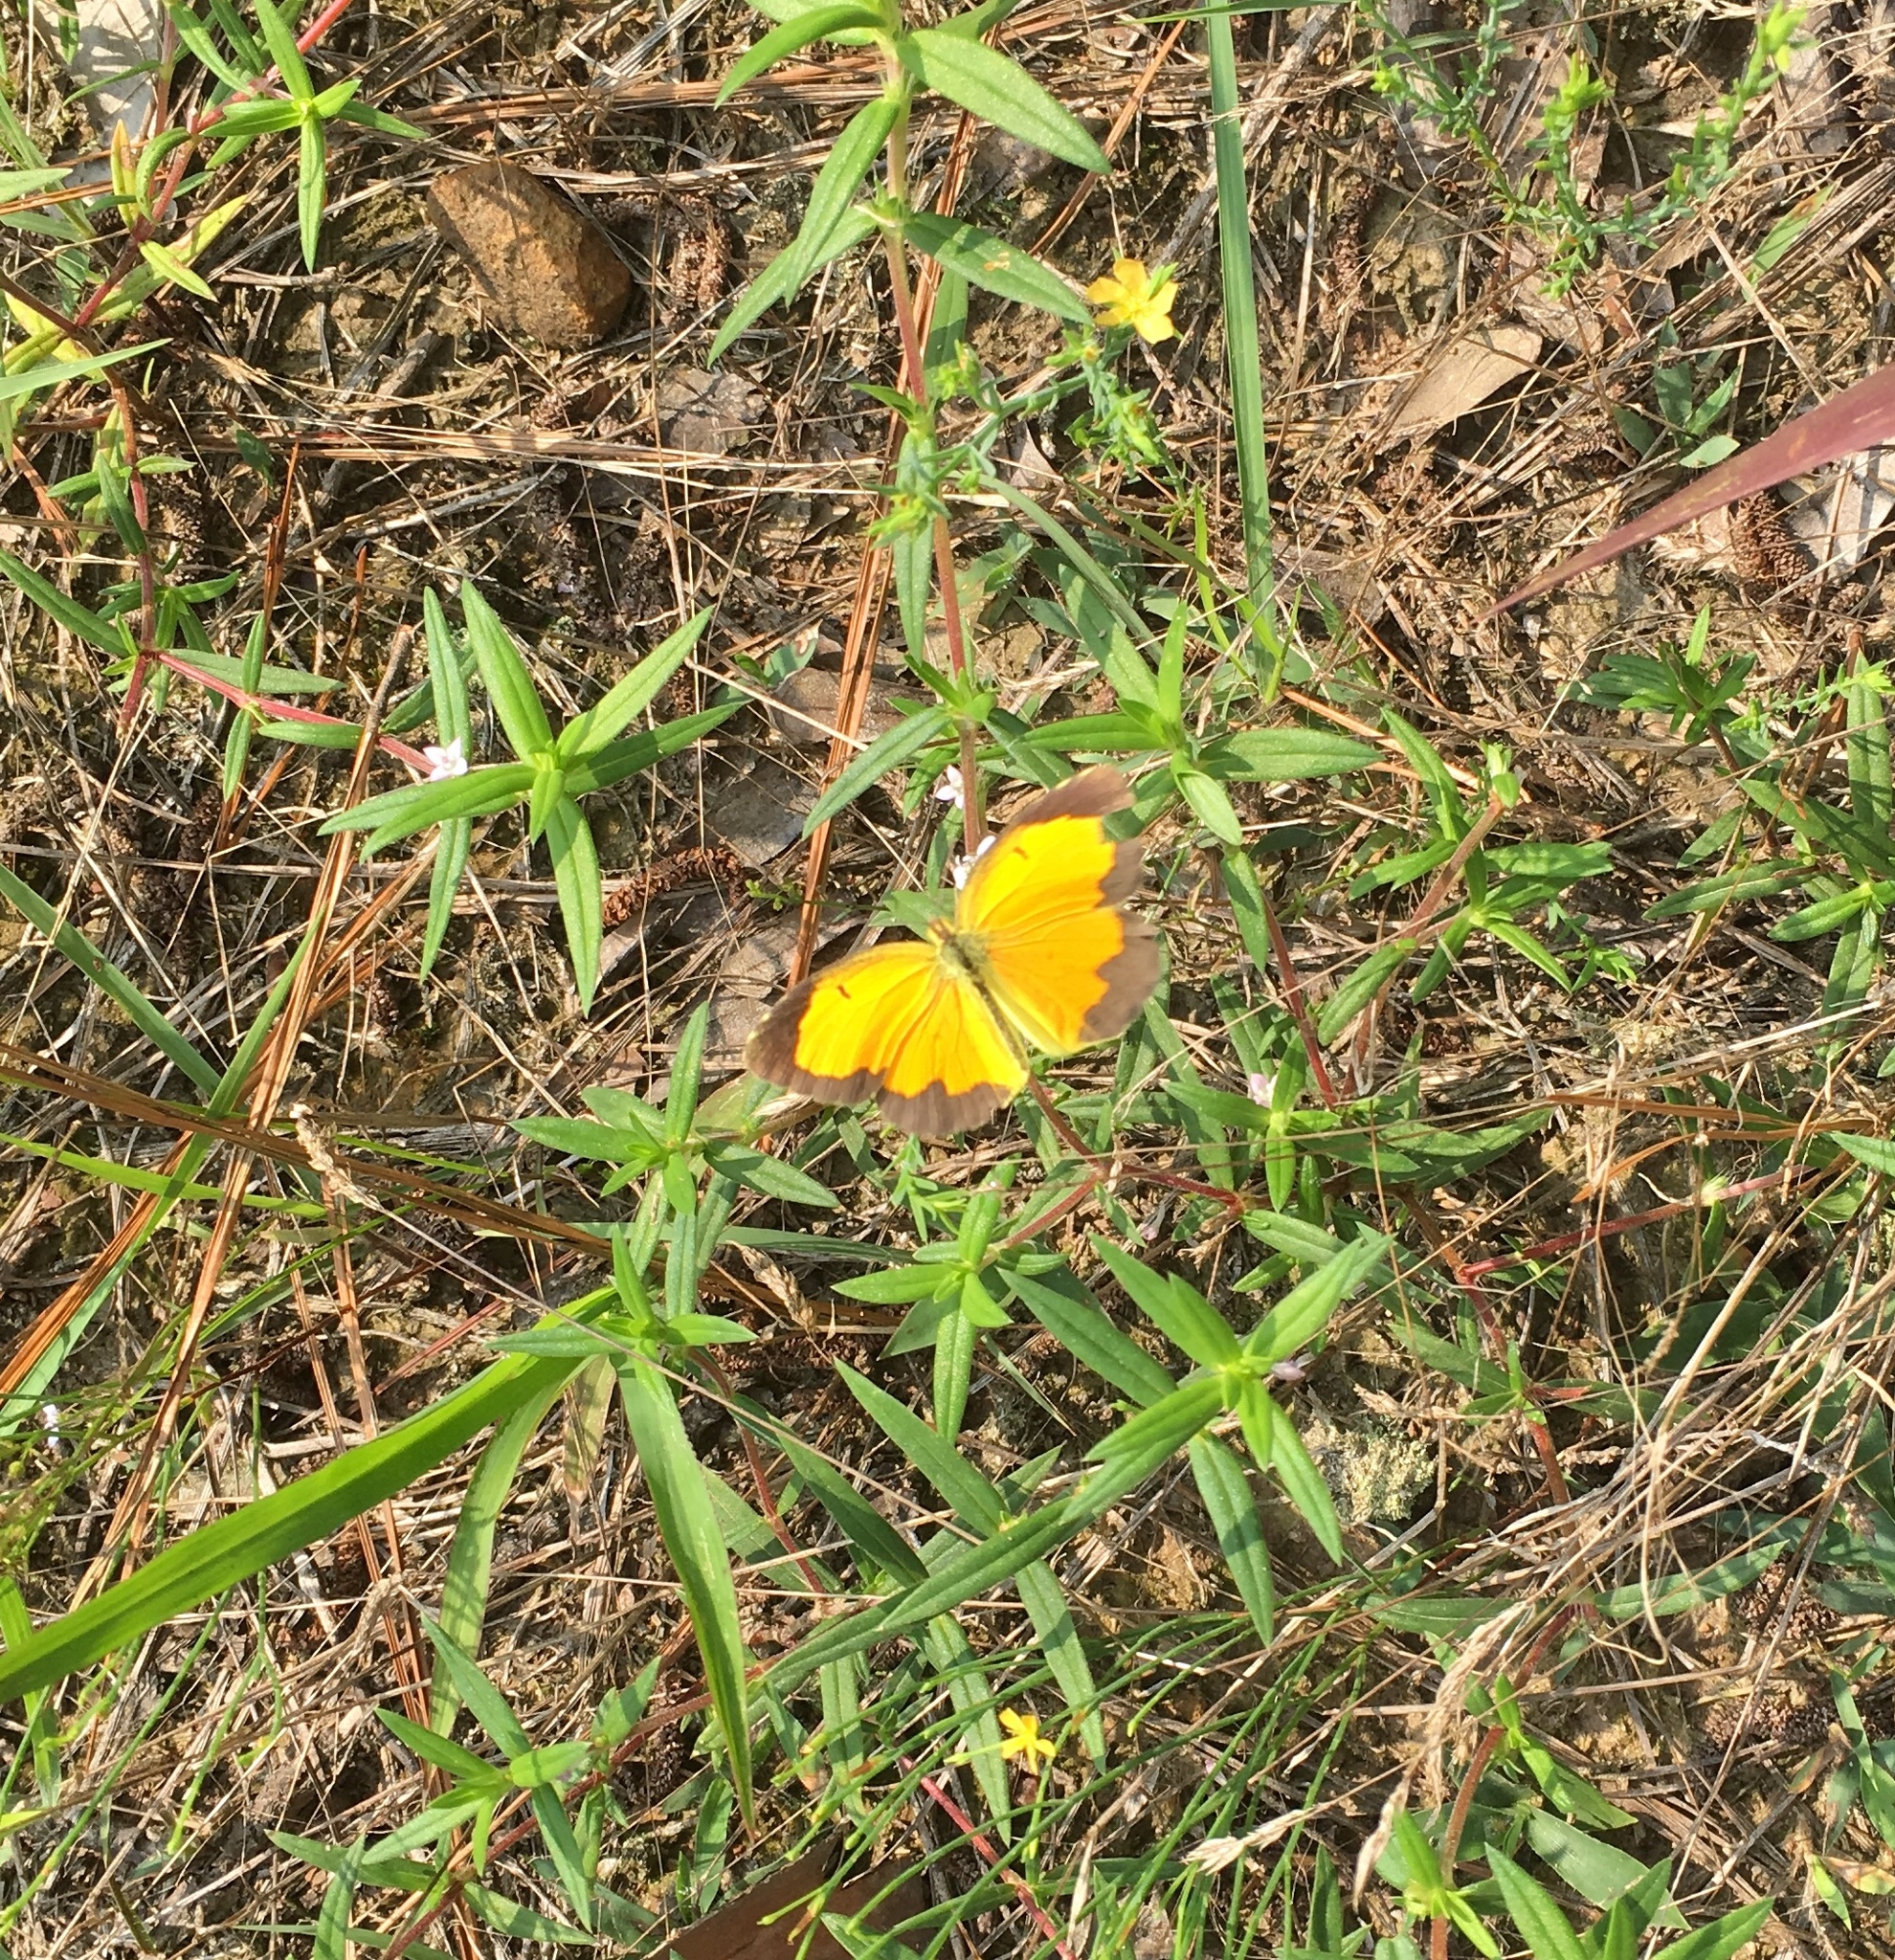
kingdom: Animalia
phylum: Arthropoda
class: Insecta
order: Lepidoptera
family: Pieridae
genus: Abaeis
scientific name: Abaeis nicippe
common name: Sleepy orange
